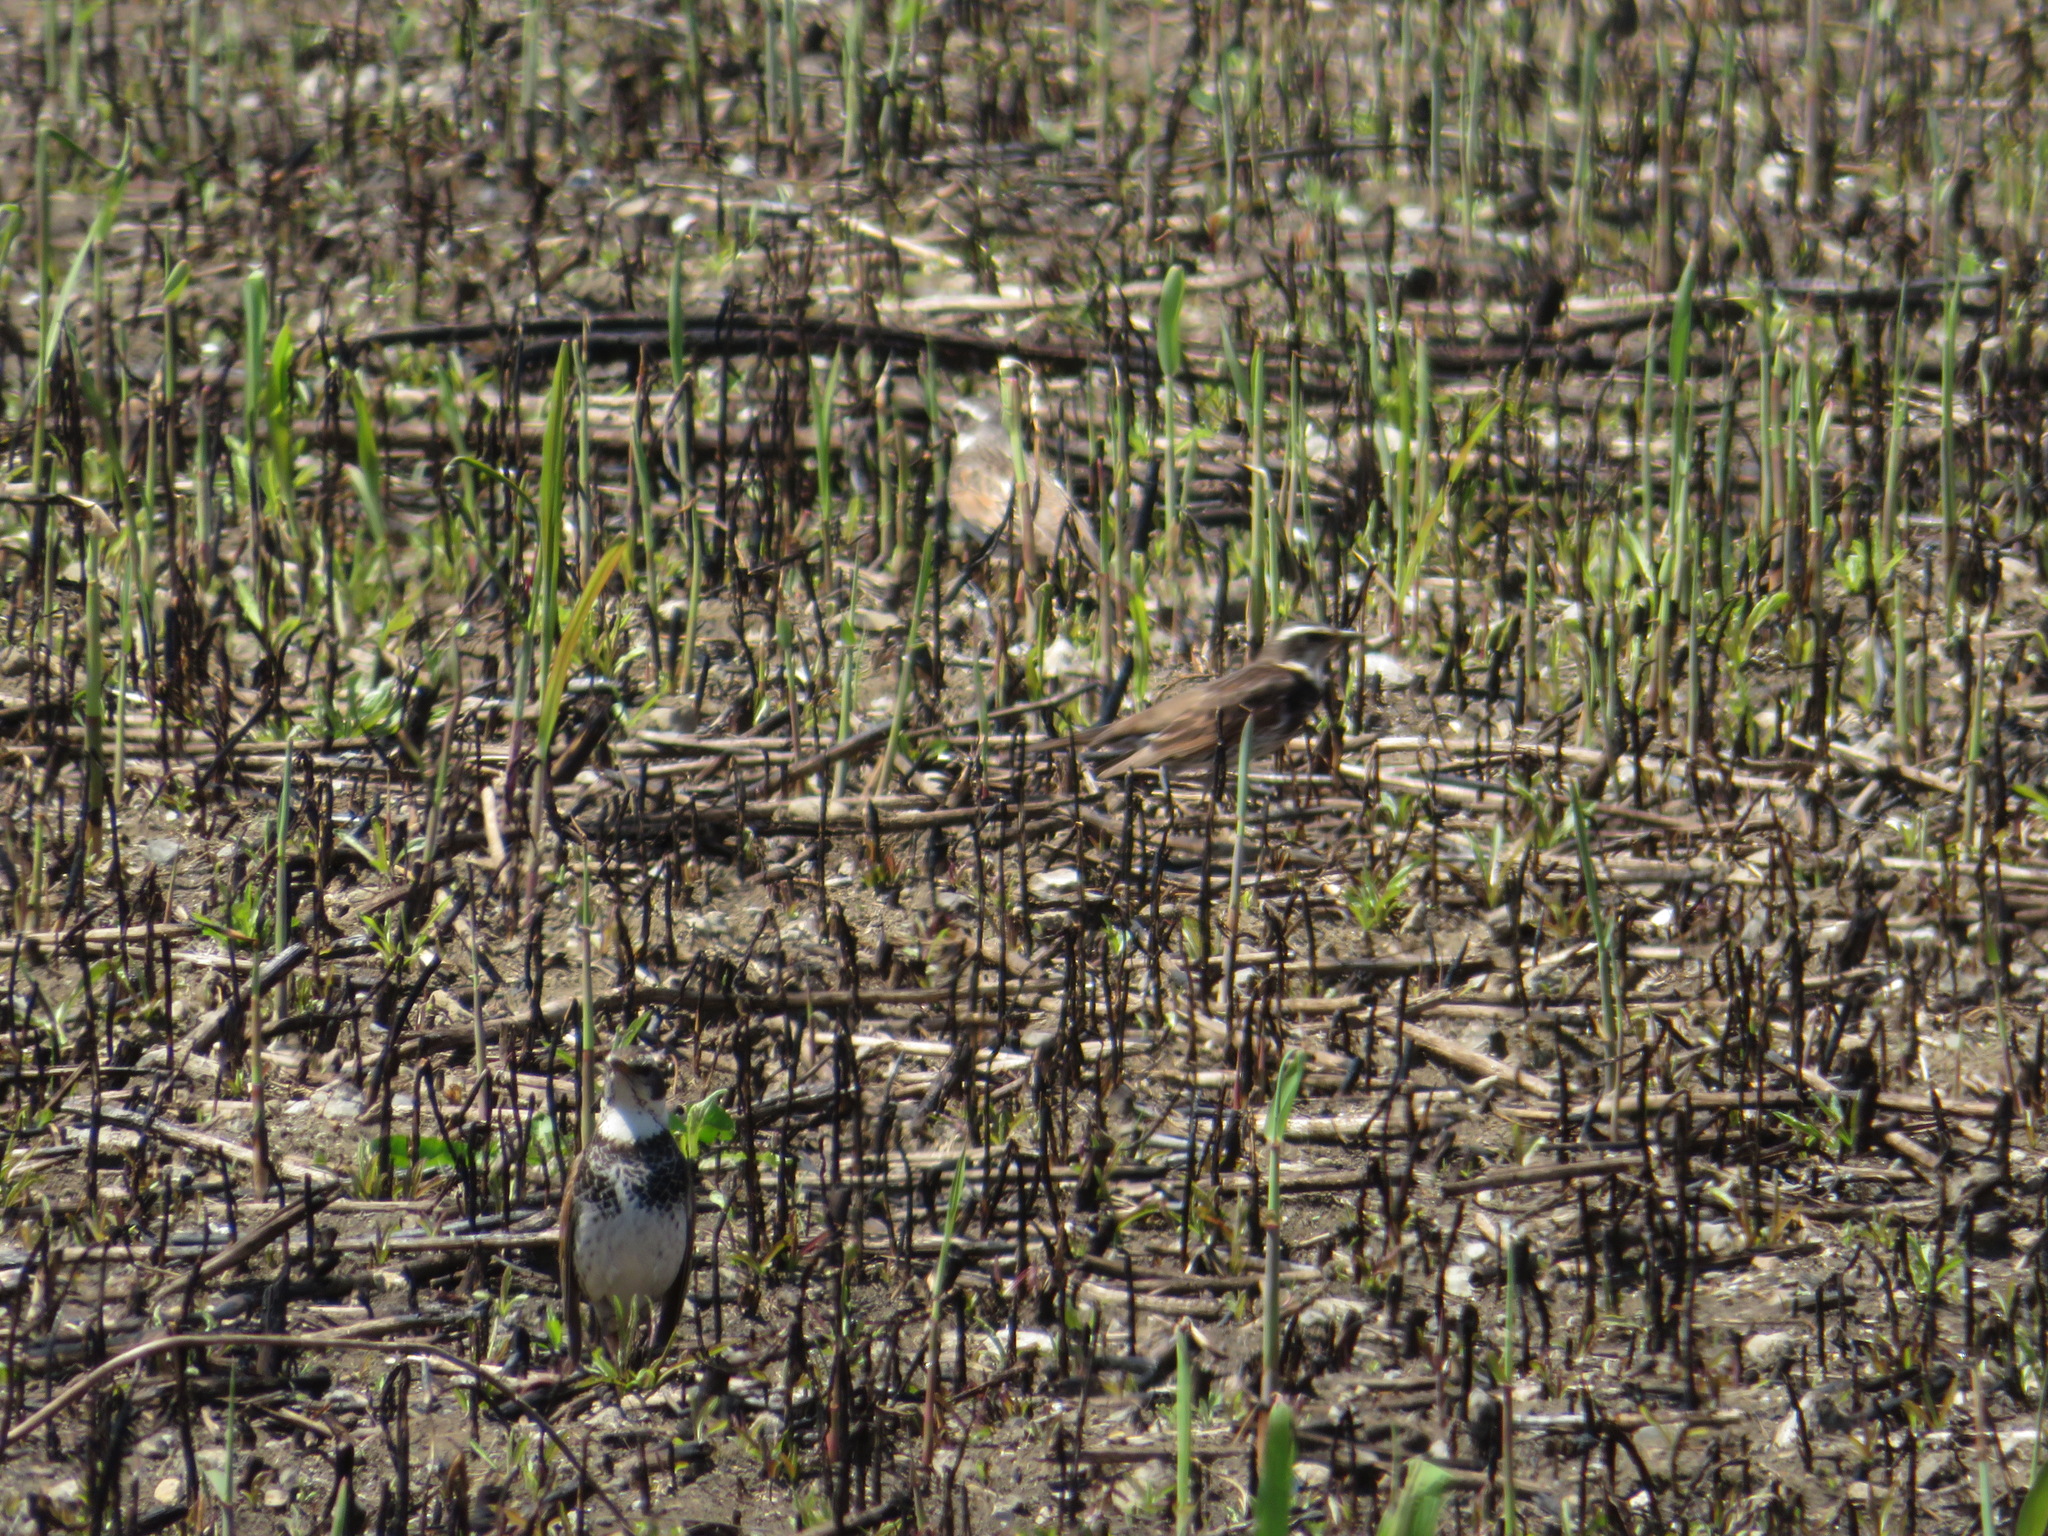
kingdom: Animalia
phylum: Chordata
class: Aves
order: Passeriformes
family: Turdidae
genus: Turdus
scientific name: Turdus eunomus
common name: Dusky thrush
